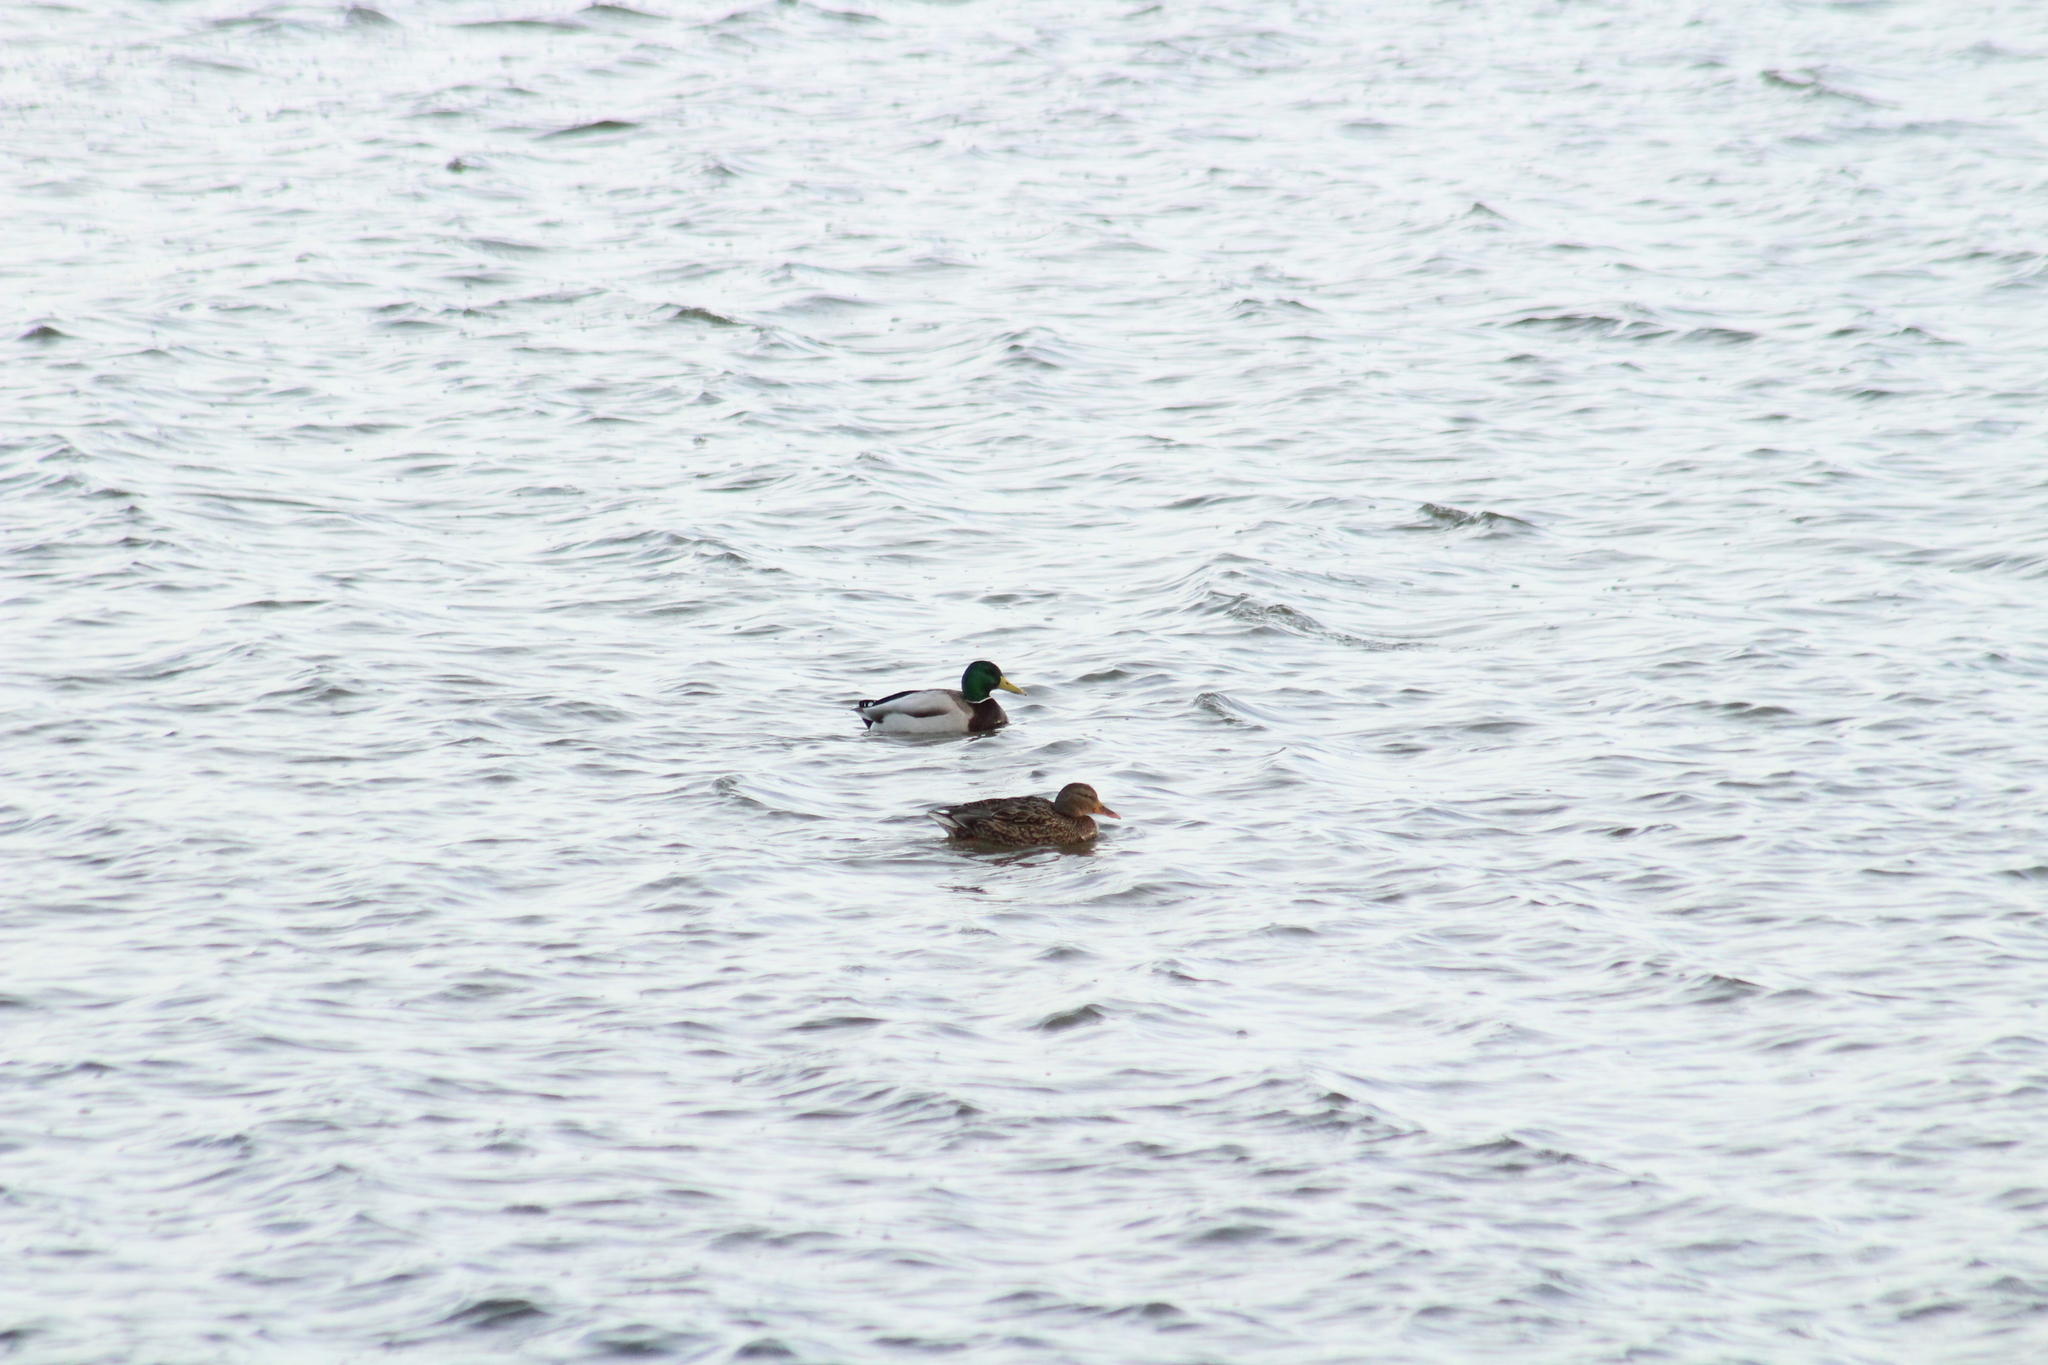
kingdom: Animalia
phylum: Chordata
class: Aves
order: Anseriformes
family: Anatidae
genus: Anas
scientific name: Anas platyrhynchos
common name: Mallard
